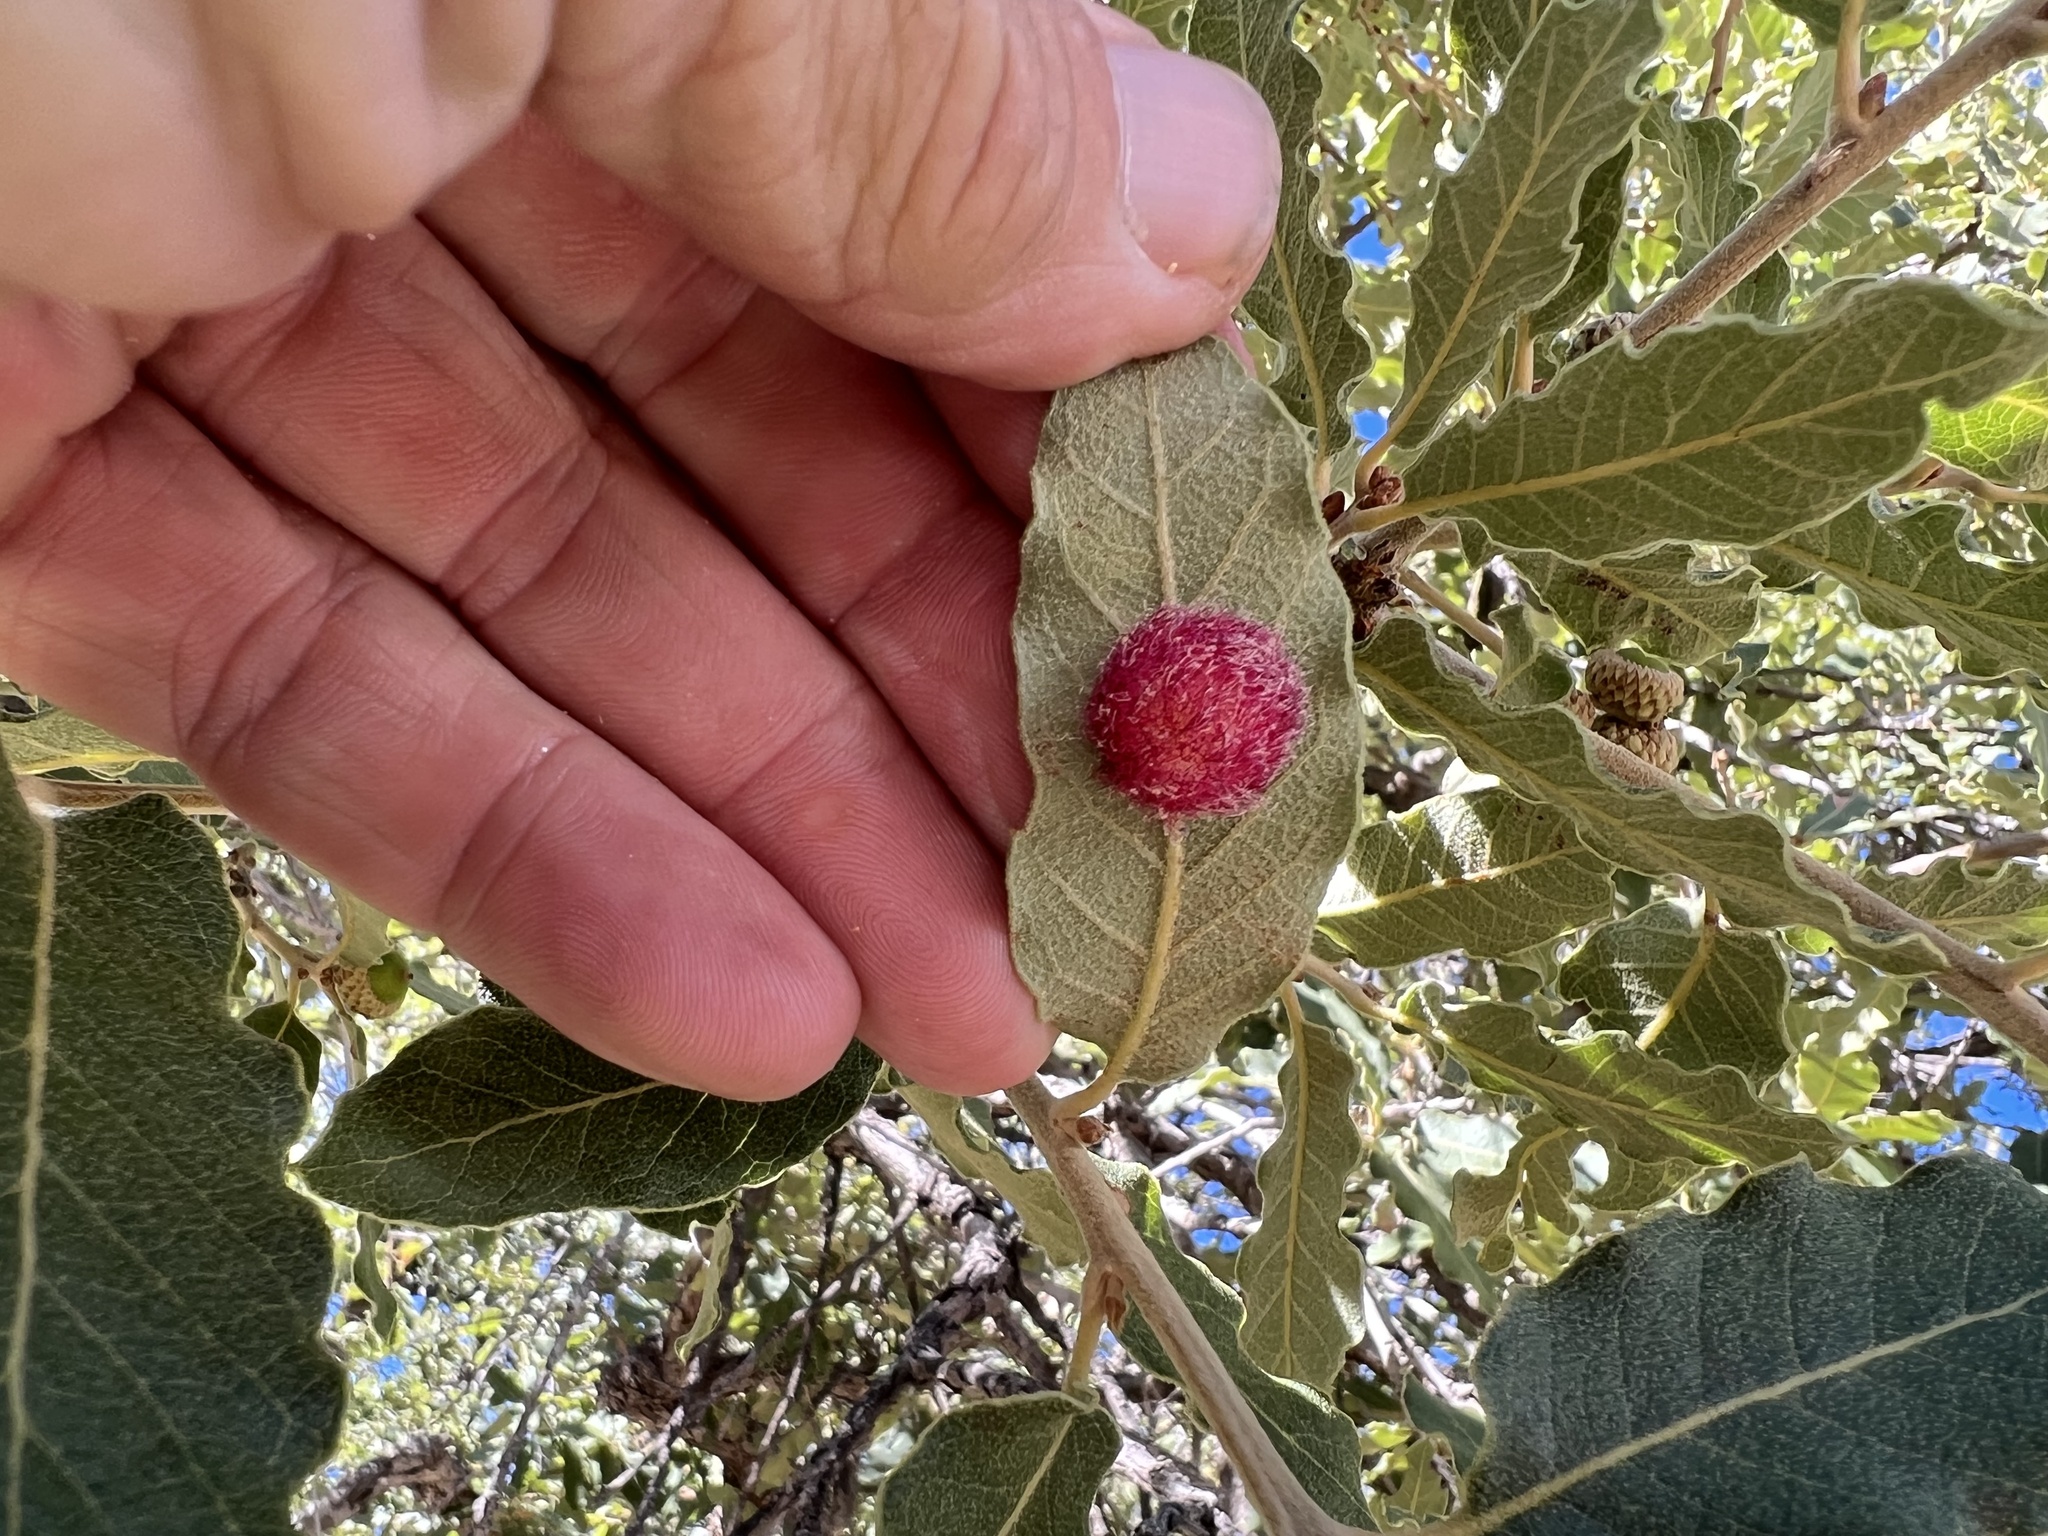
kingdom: Animalia
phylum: Arthropoda
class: Insecta
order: Hymenoptera
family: Cynipidae
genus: Cynips
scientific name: Cynips
